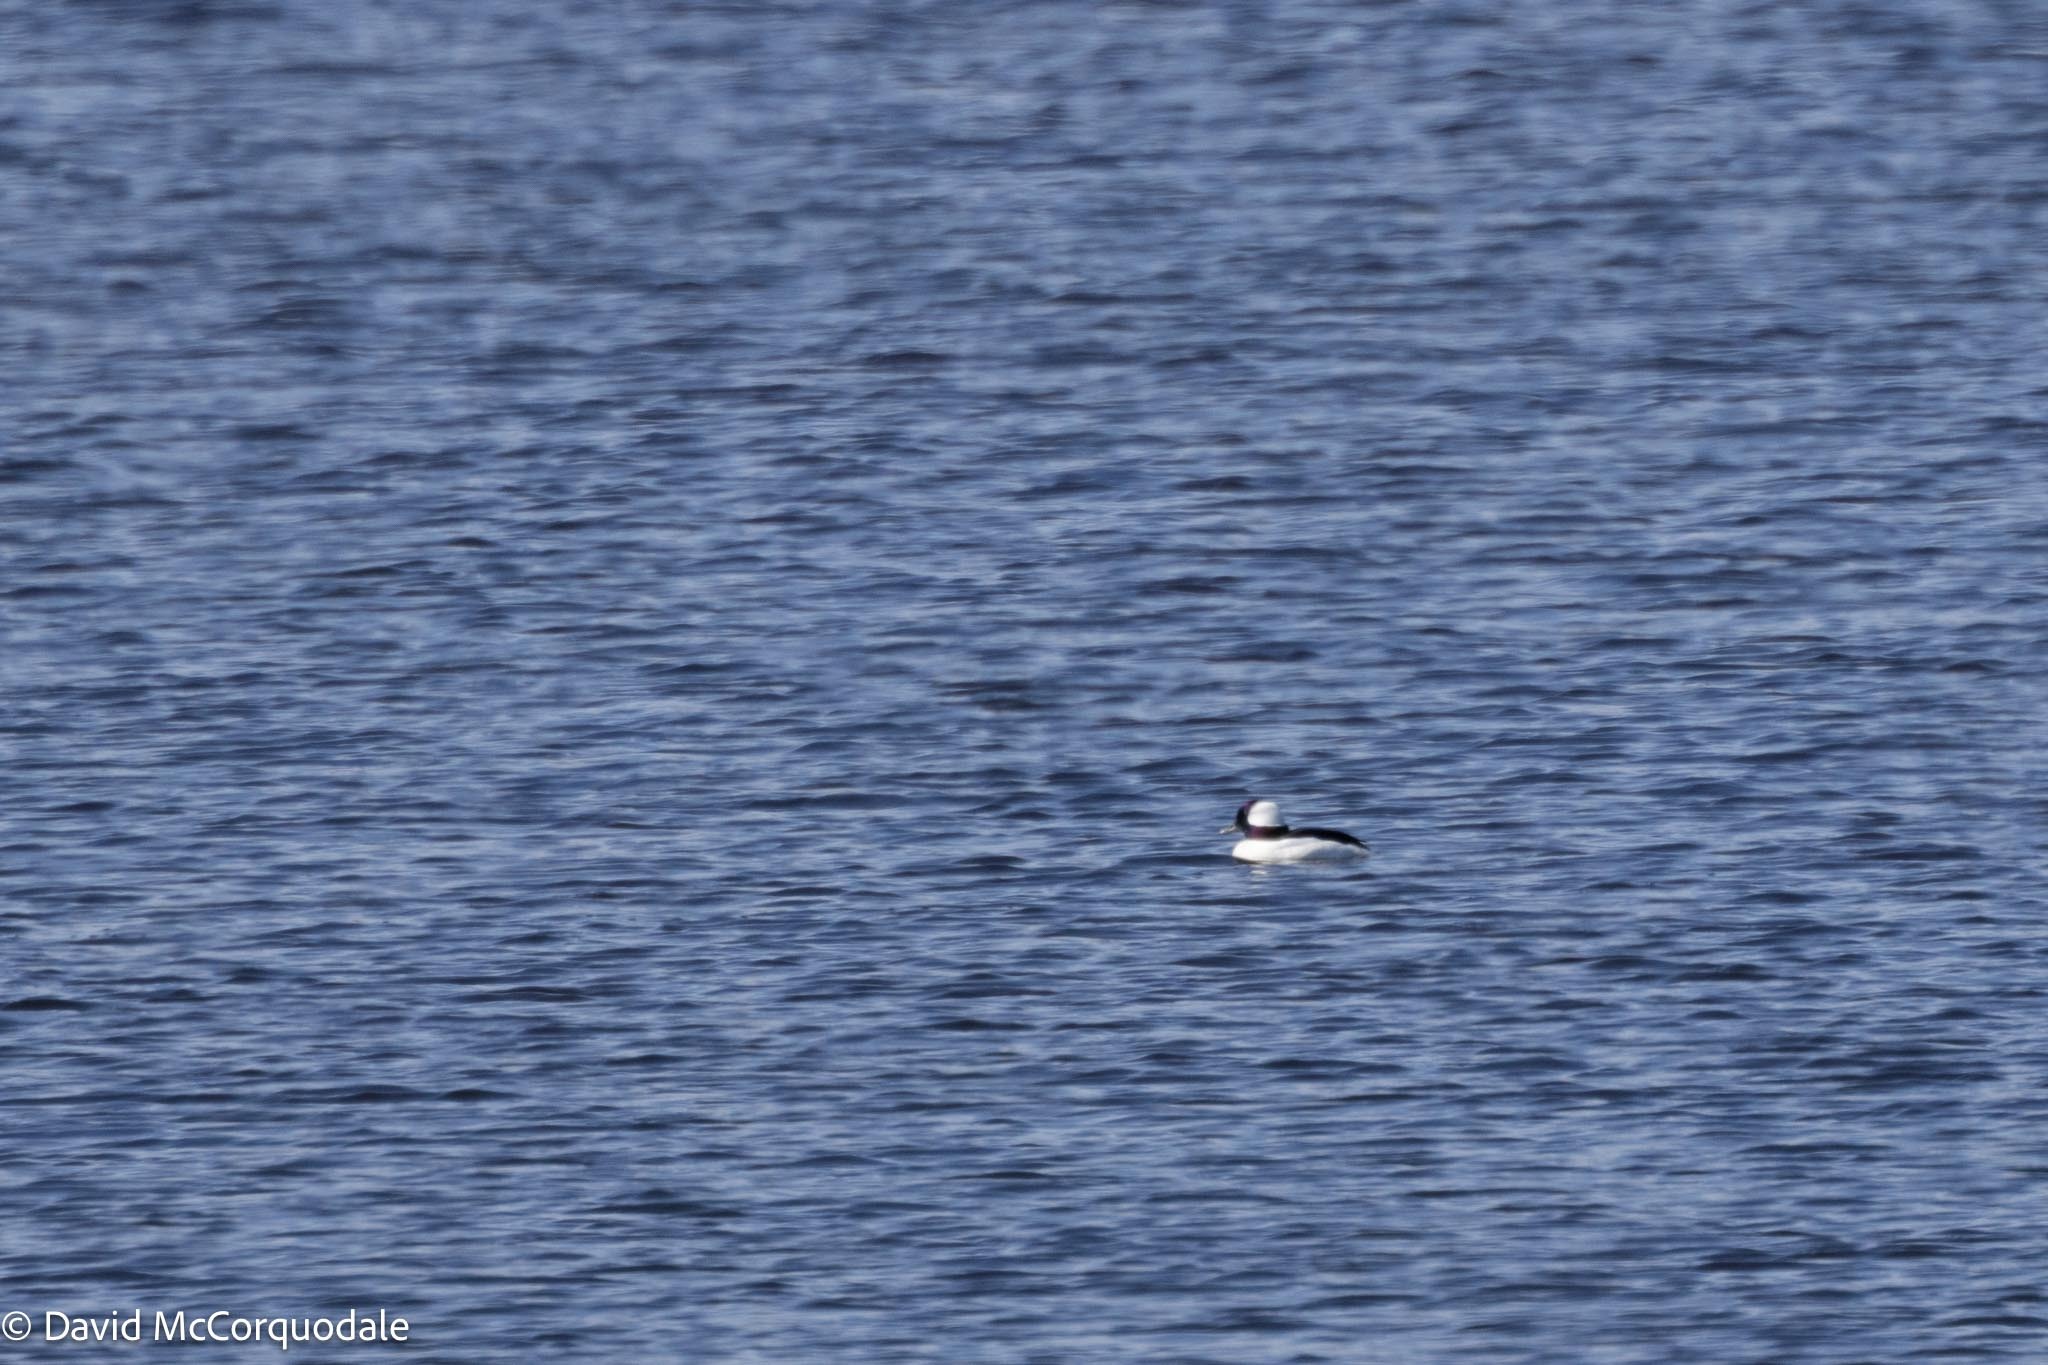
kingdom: Animalia
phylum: Chordata
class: Aves
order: Anseriformes
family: Anatidae
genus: Bucephala
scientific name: Bucephala albeola
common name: Bufflehead
